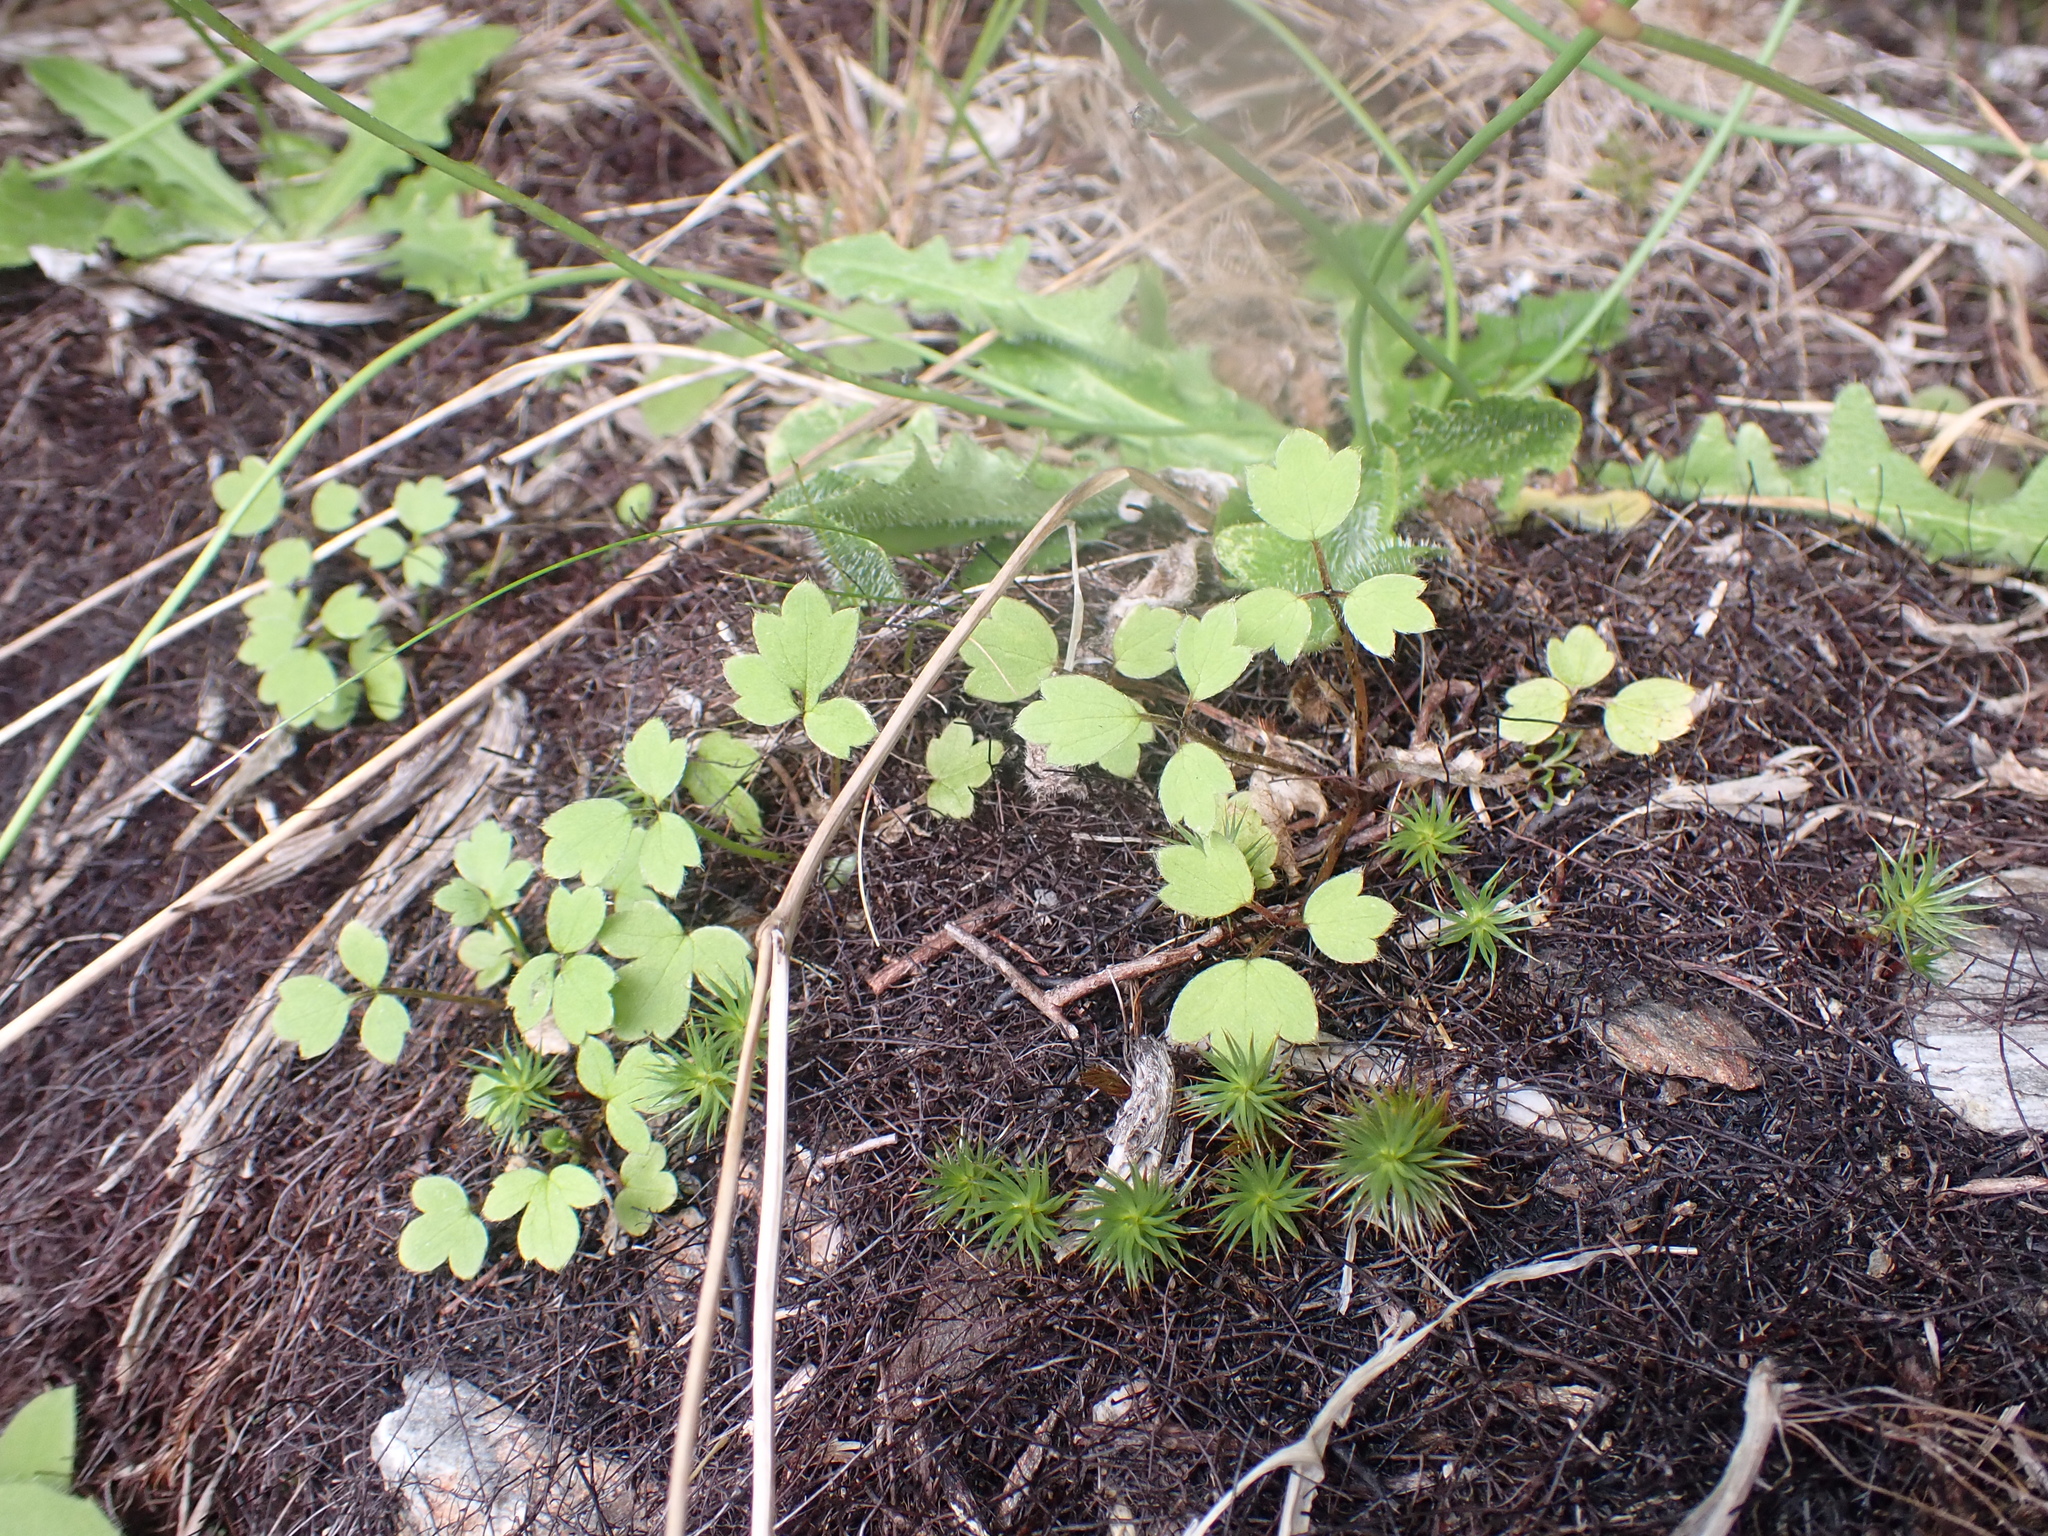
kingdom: Plantae
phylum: Tracheophyta
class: Magnoliopsida
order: Ranunculales
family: Ranunculaceae
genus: Ranunculus
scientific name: Ranunculus reflexus
